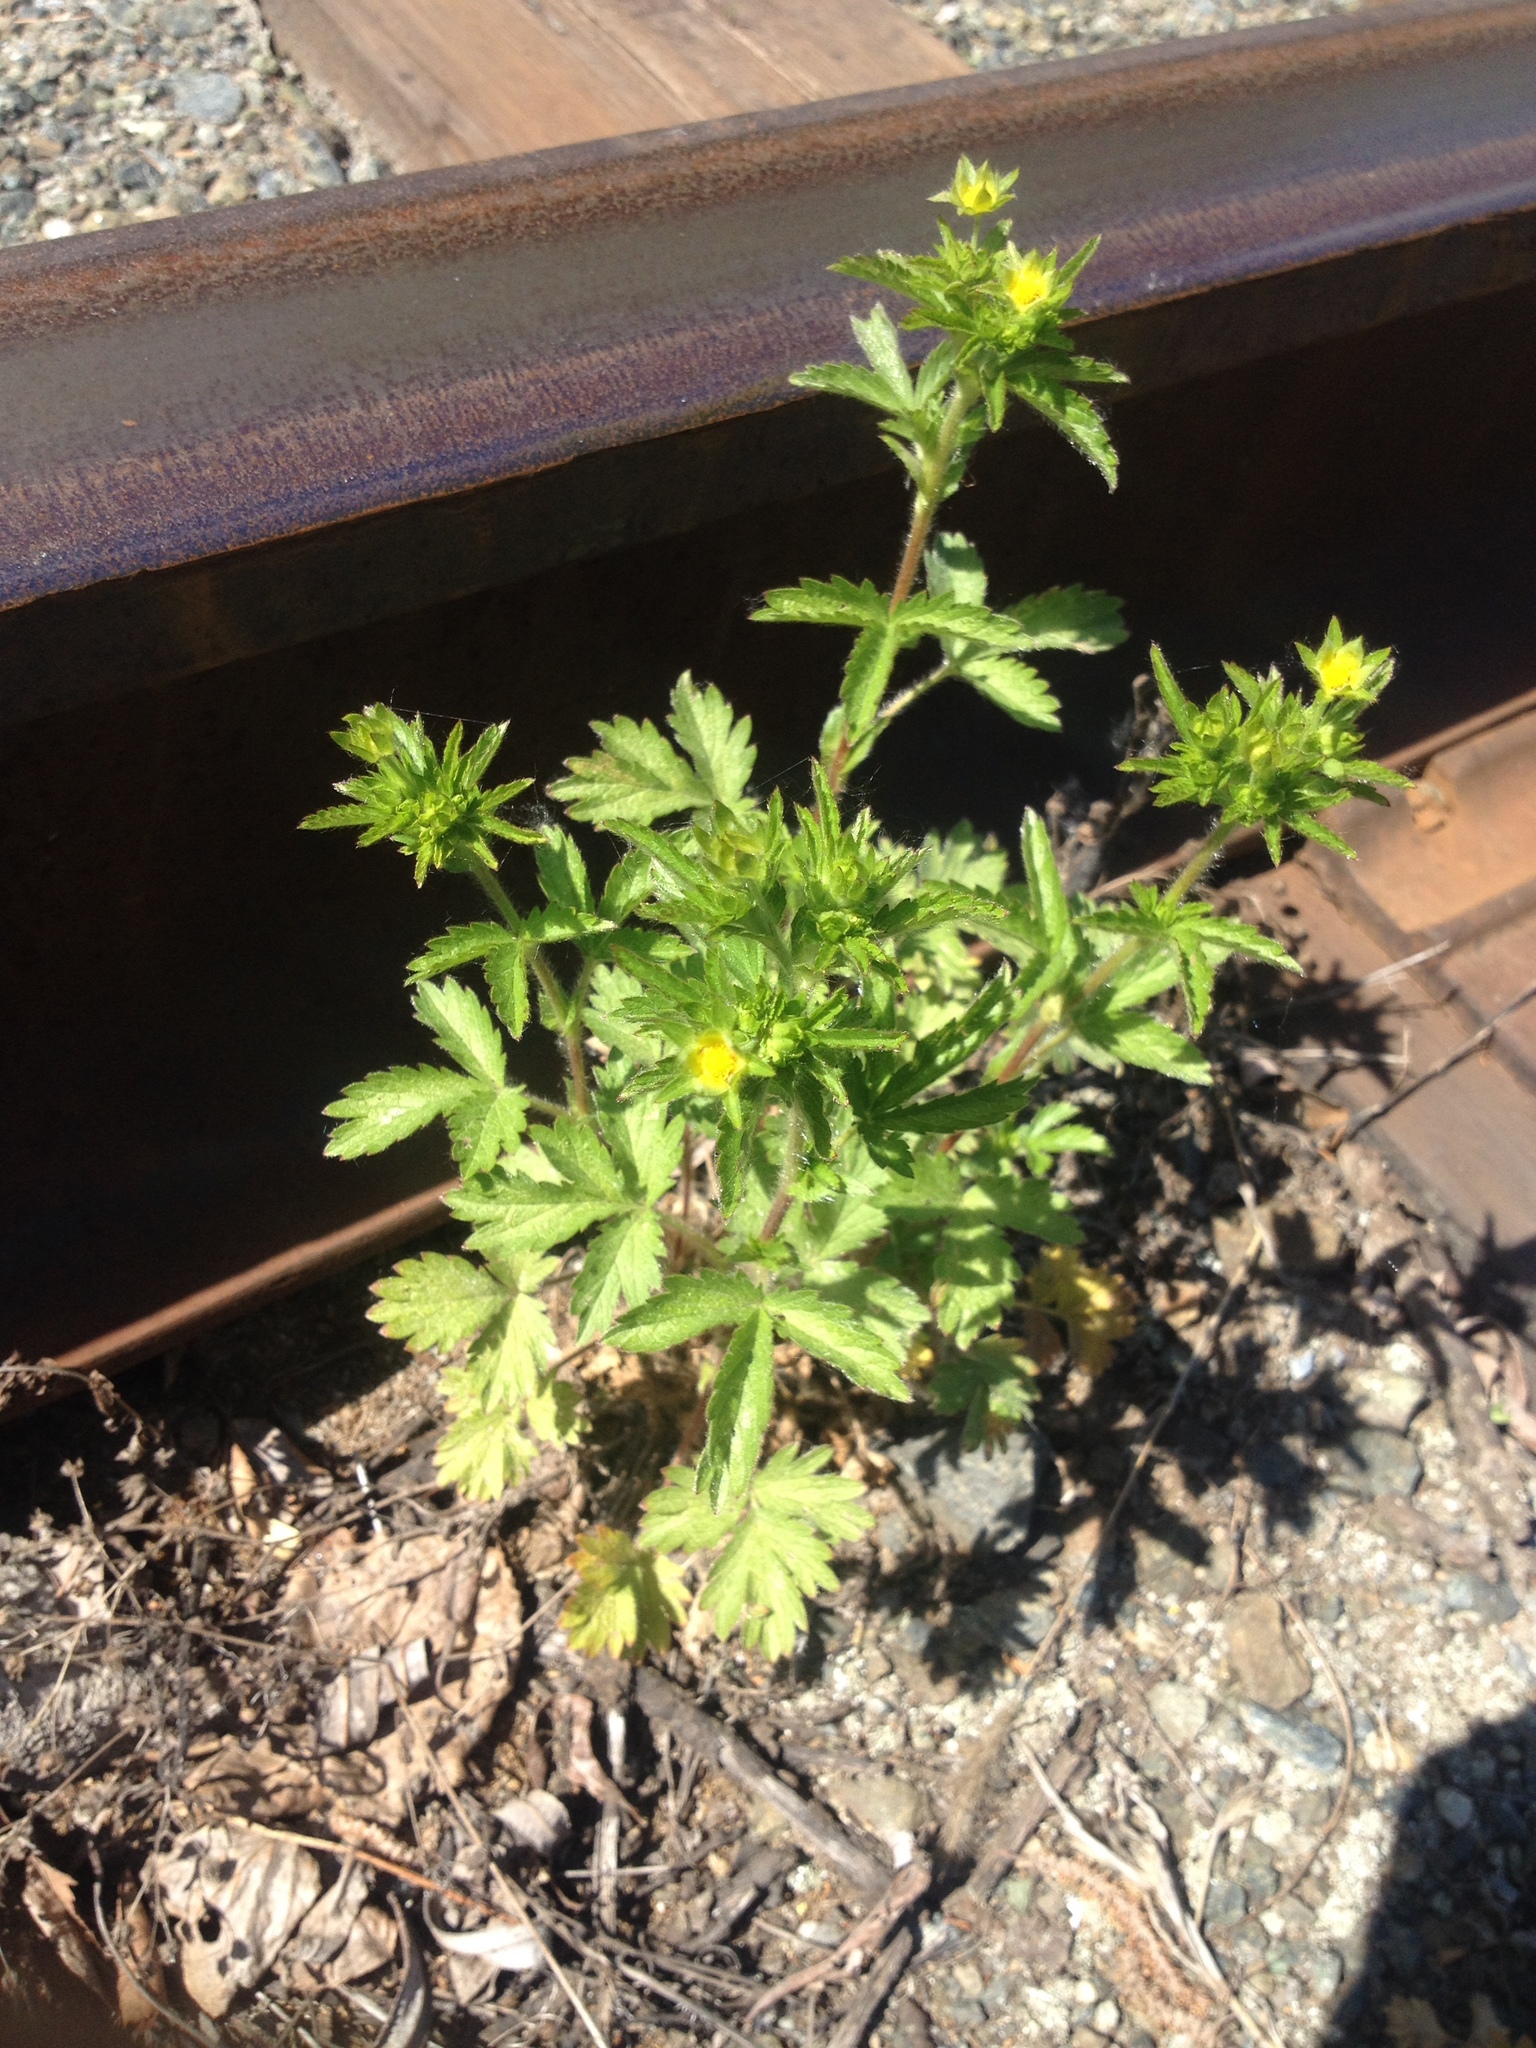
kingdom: Plantae
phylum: Tracheophyta
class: Magnoliopsida
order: Rosales
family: Rosaceae
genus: Potentilla
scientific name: Potentilla norvegica
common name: Ternate-leaved cinquefoil
